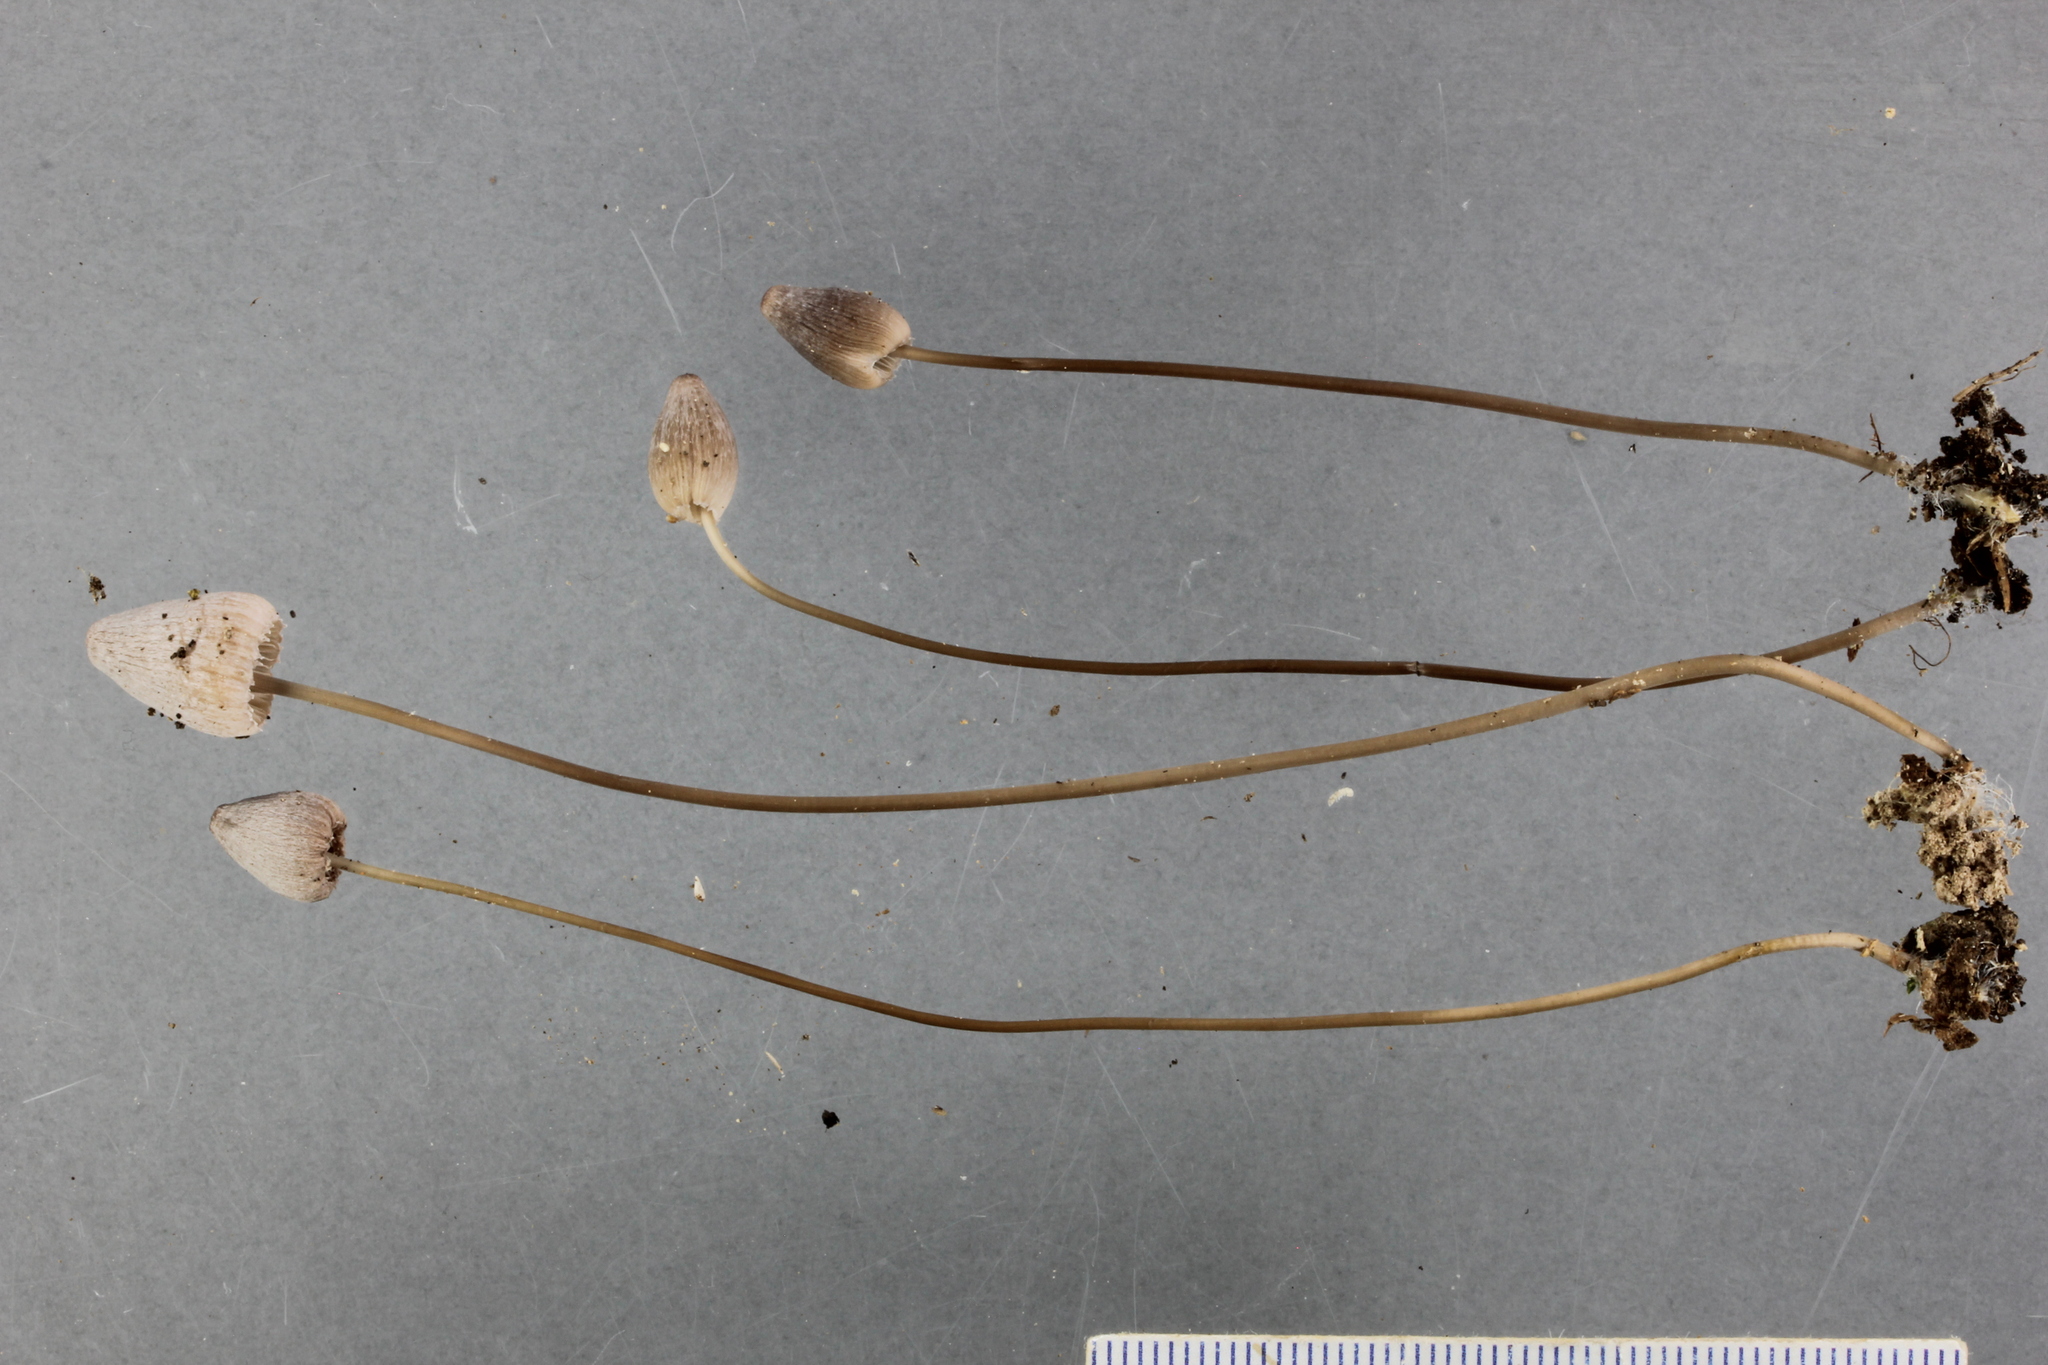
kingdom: Fungi
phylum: Basidiomycota
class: Agaricomycetes
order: Agaricales
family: Mycenaceae
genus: Mycena
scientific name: Mycena filopes
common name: Iodine bonnet
